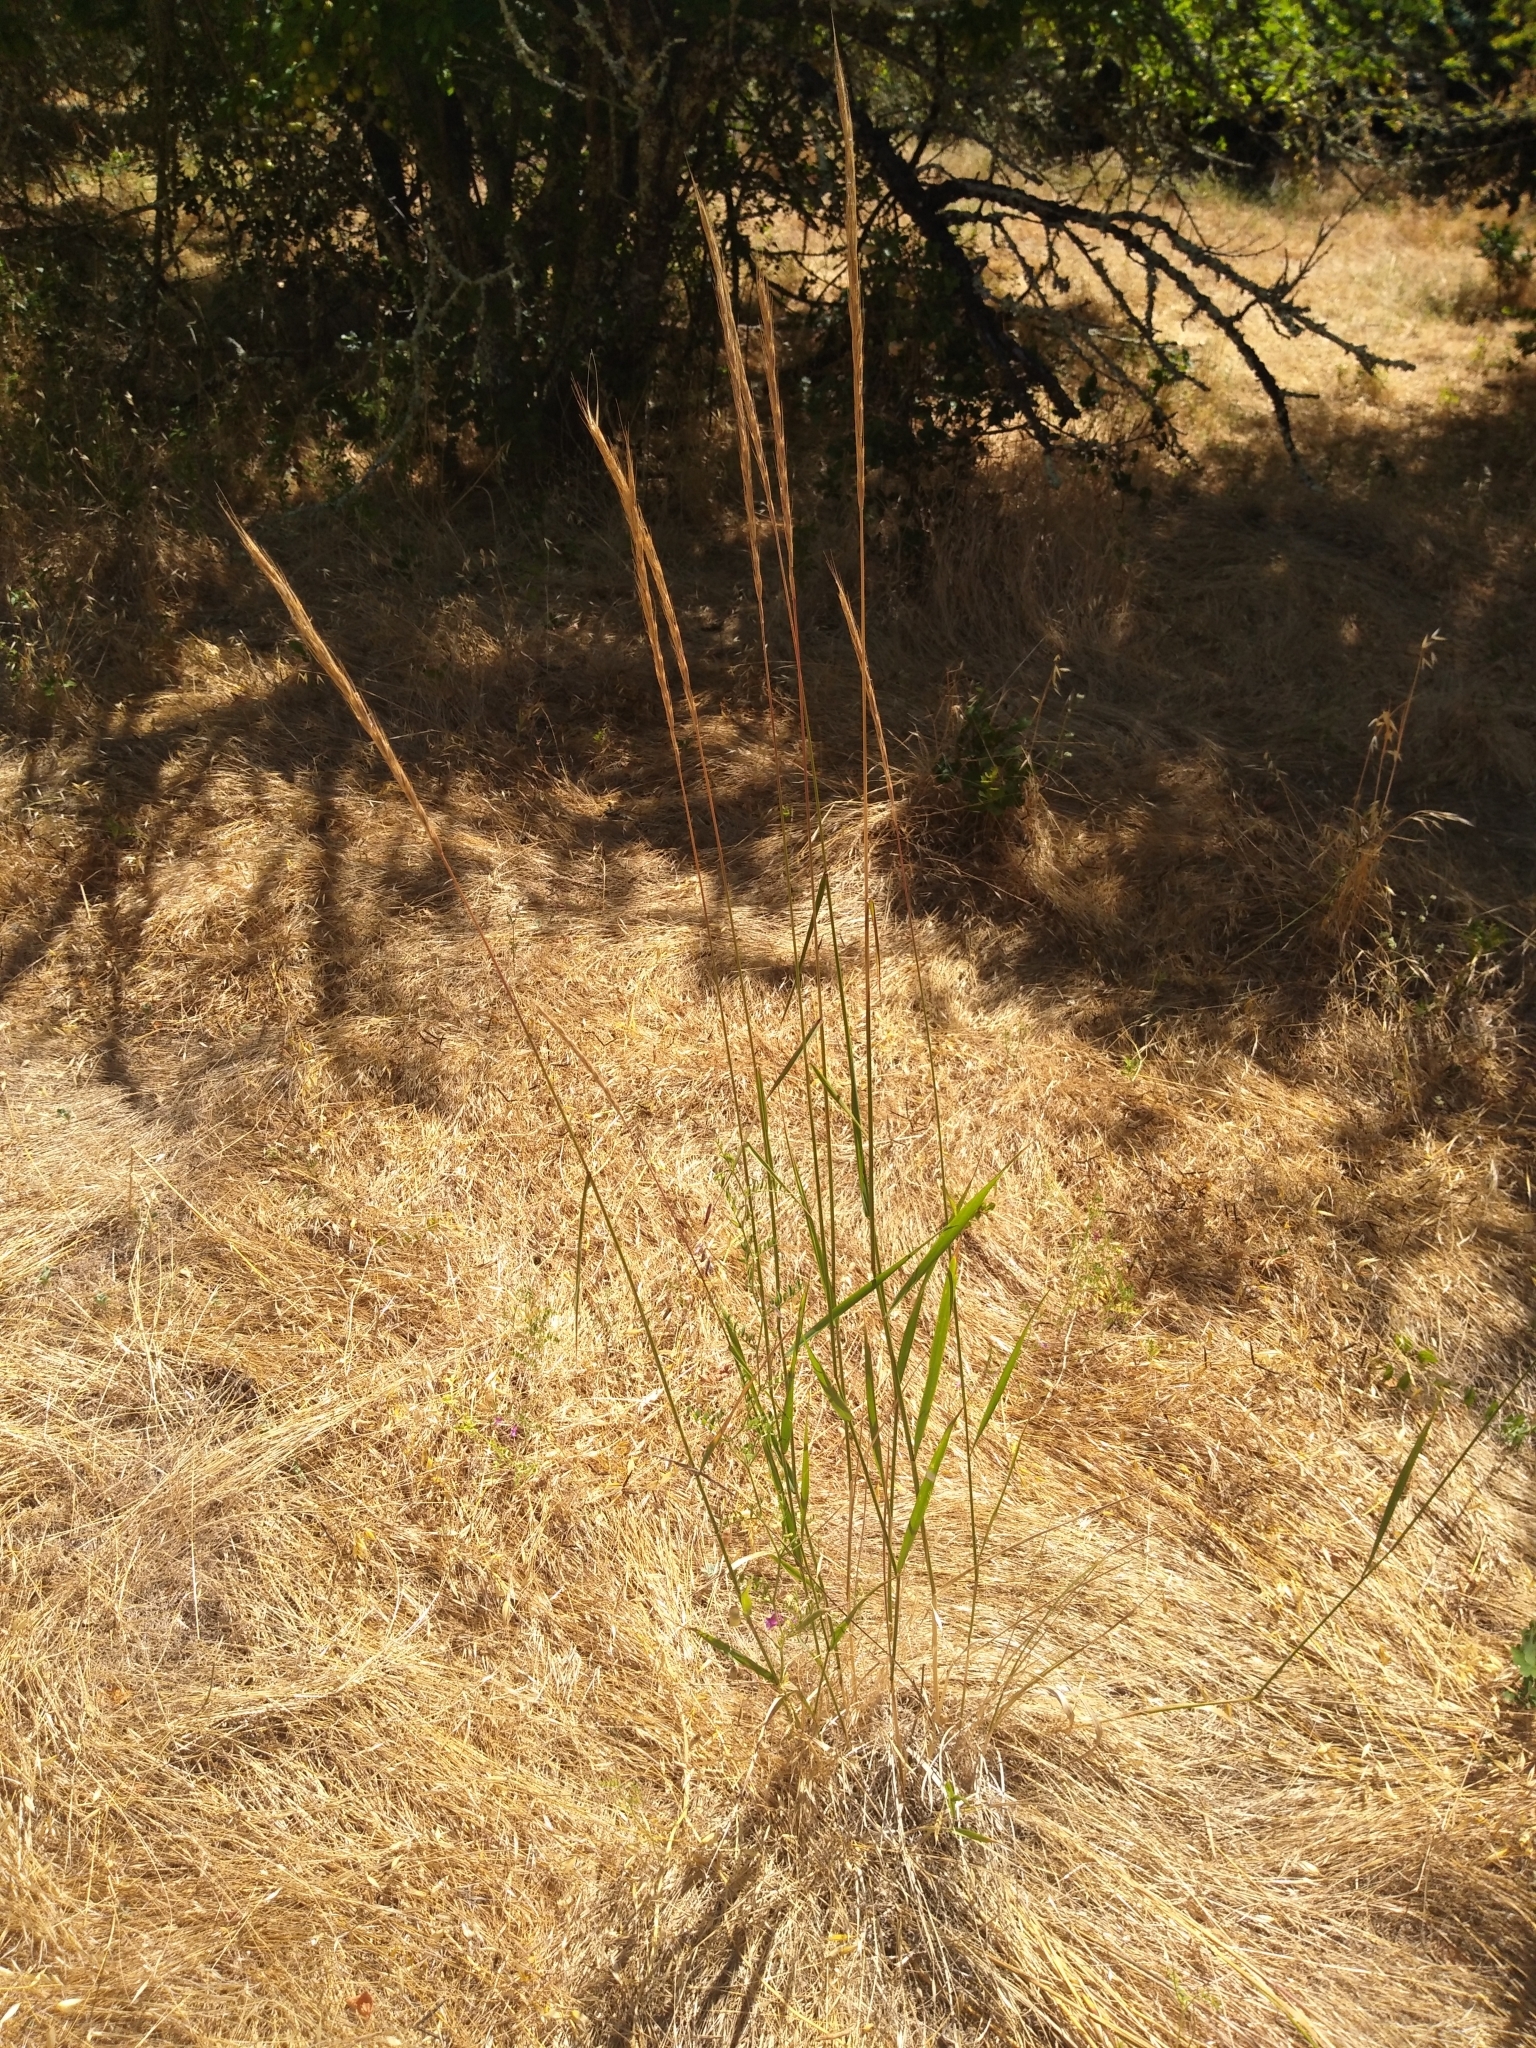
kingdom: Plantae
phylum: Tracheophyta
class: Liliopsida
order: Poales
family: Poaceae
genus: Elymus
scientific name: Elymus glaucus
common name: Blue wild rye
